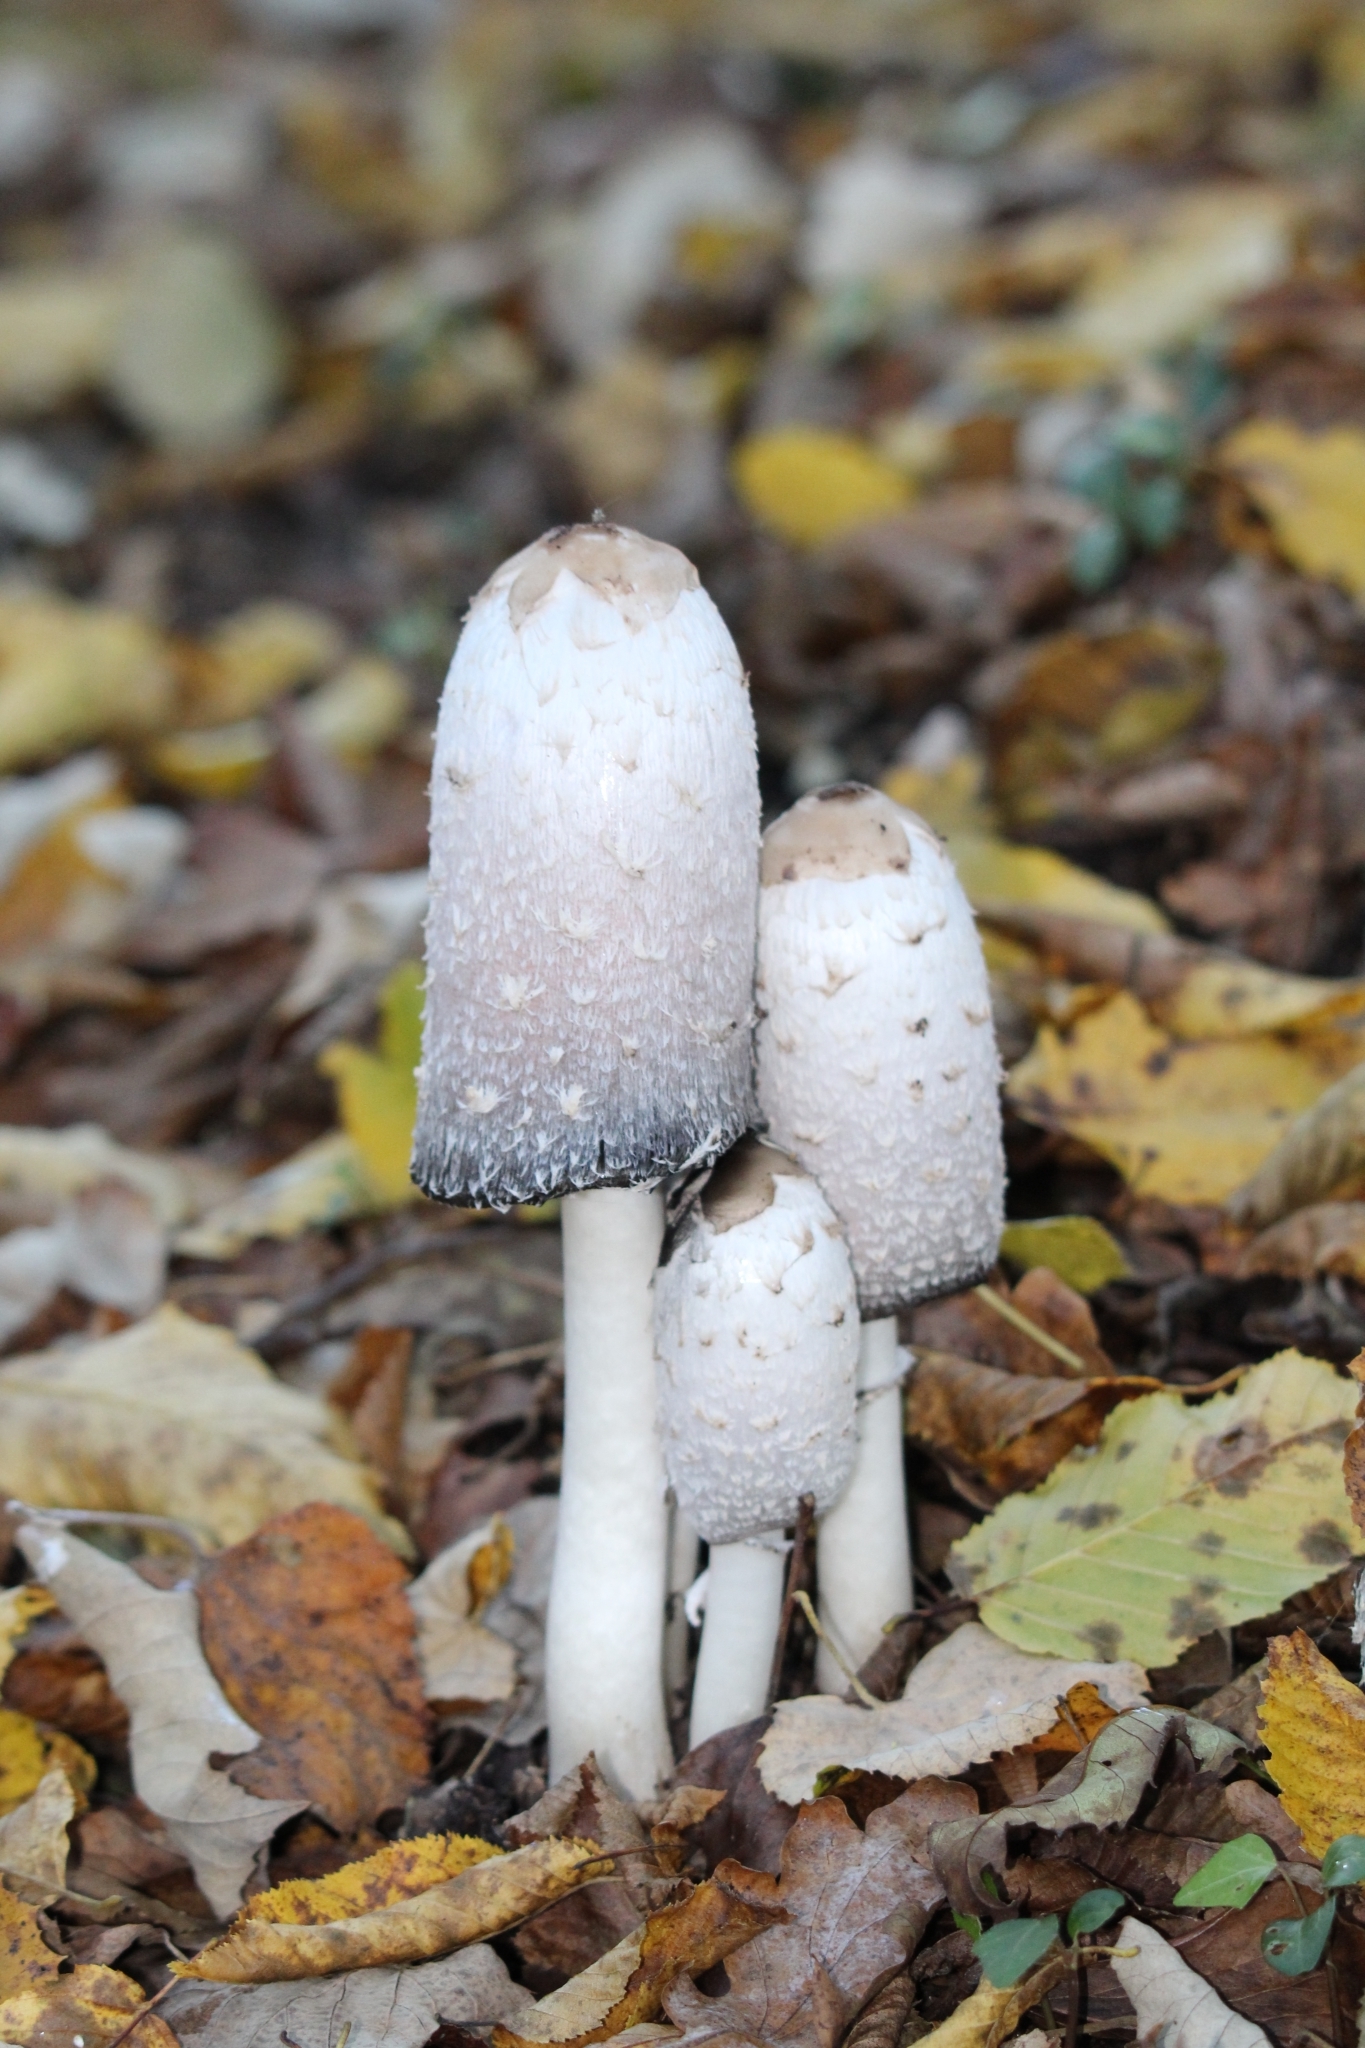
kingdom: Fungi
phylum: Basidiomycota
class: Agaricomycetes
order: Agaricales
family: Agaricaceae
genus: Coprinus
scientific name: Coprinus comatus
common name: Lawyer's wig
